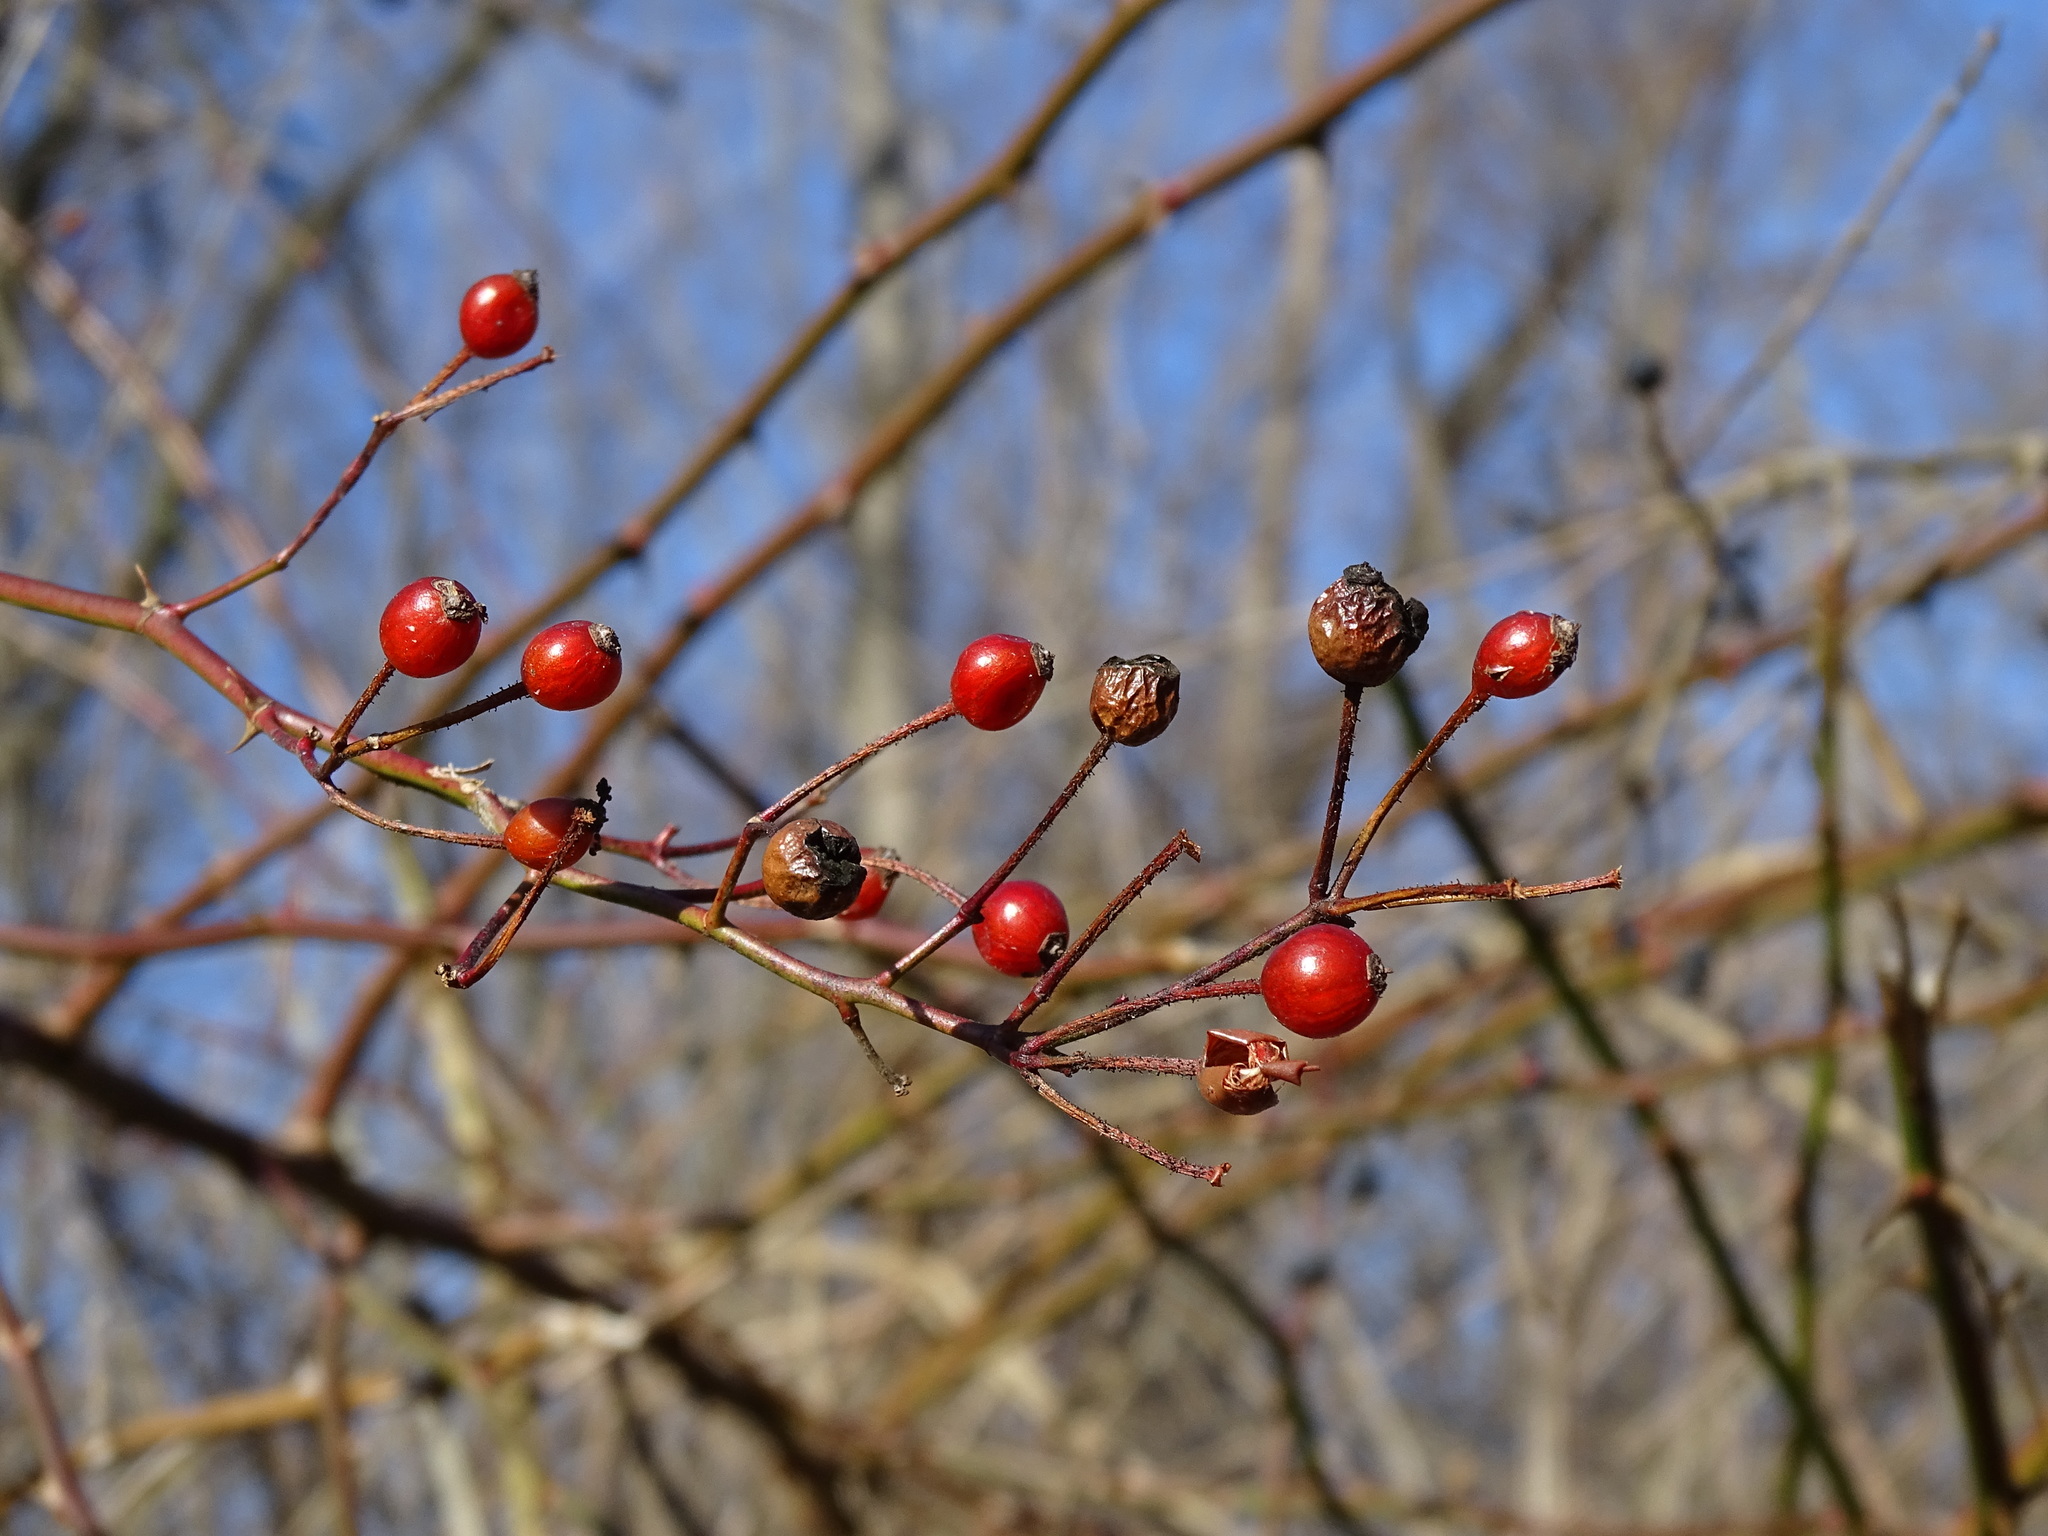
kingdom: Plantae
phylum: Tracheophyta
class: Magnoliopsida
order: Rosales
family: Rosaceae
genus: Rosa
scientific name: Rosa multiflora
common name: Multiflora rose
